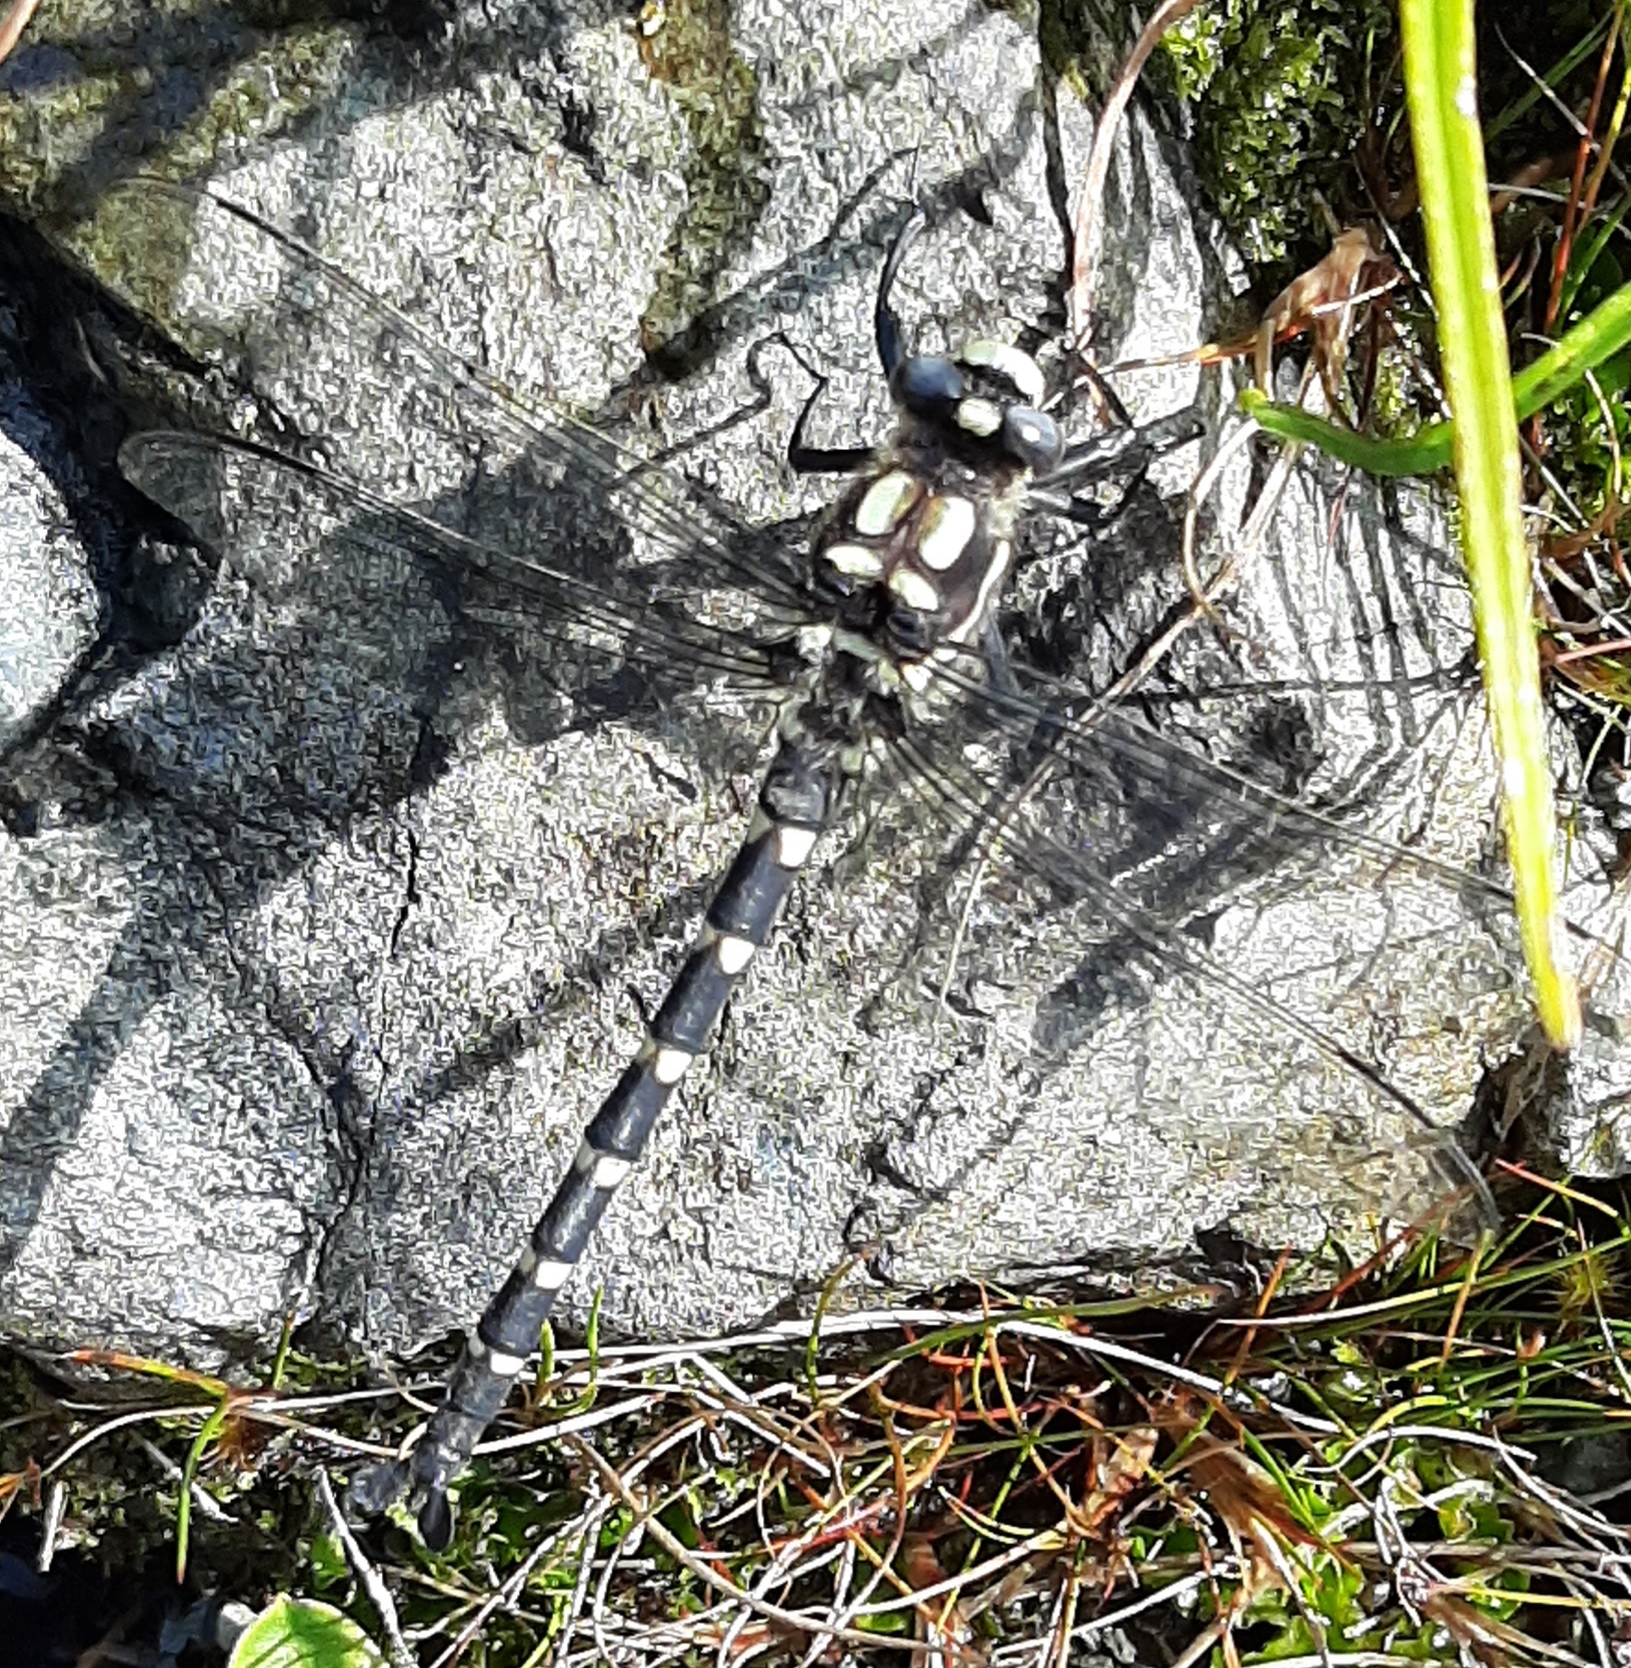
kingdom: Animalia
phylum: Arthropoda
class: Insecta
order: Odonata
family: Petaluridae
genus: Uropetala
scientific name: Uropetala chiltoni
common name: Mountain giant dragonfly
